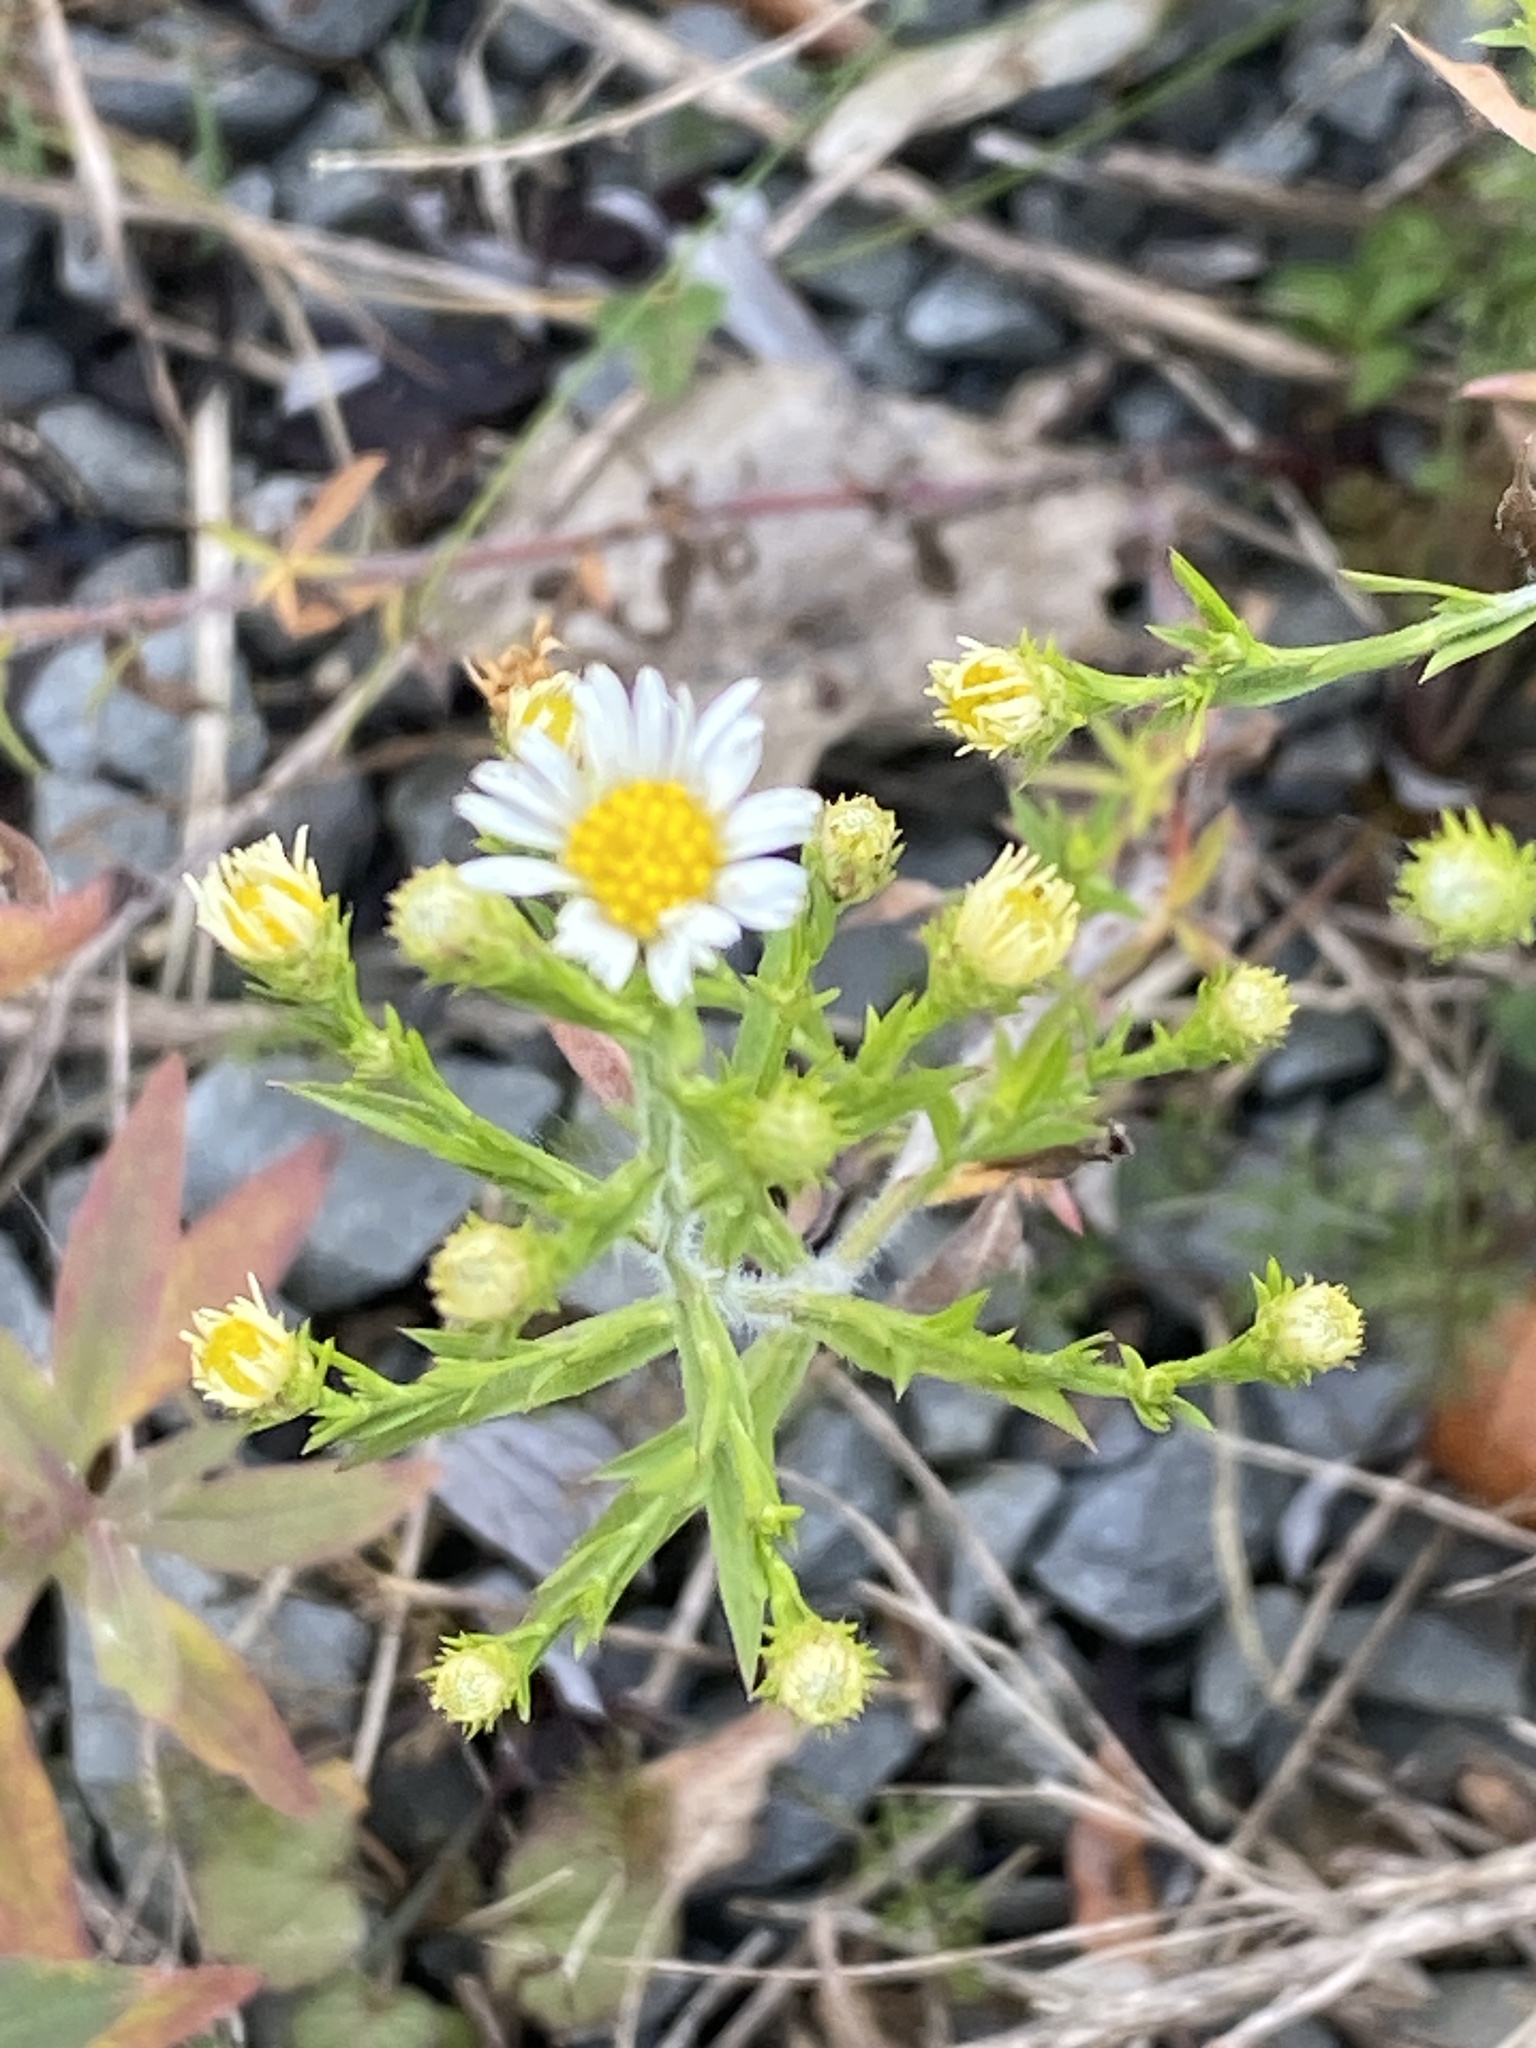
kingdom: Plantae
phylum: Tracheophyta
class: Magnoliopsida
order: Asterales
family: Asteraceae
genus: Symphyotrichum
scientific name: Symphyotrichum pilosum
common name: Awl aster
